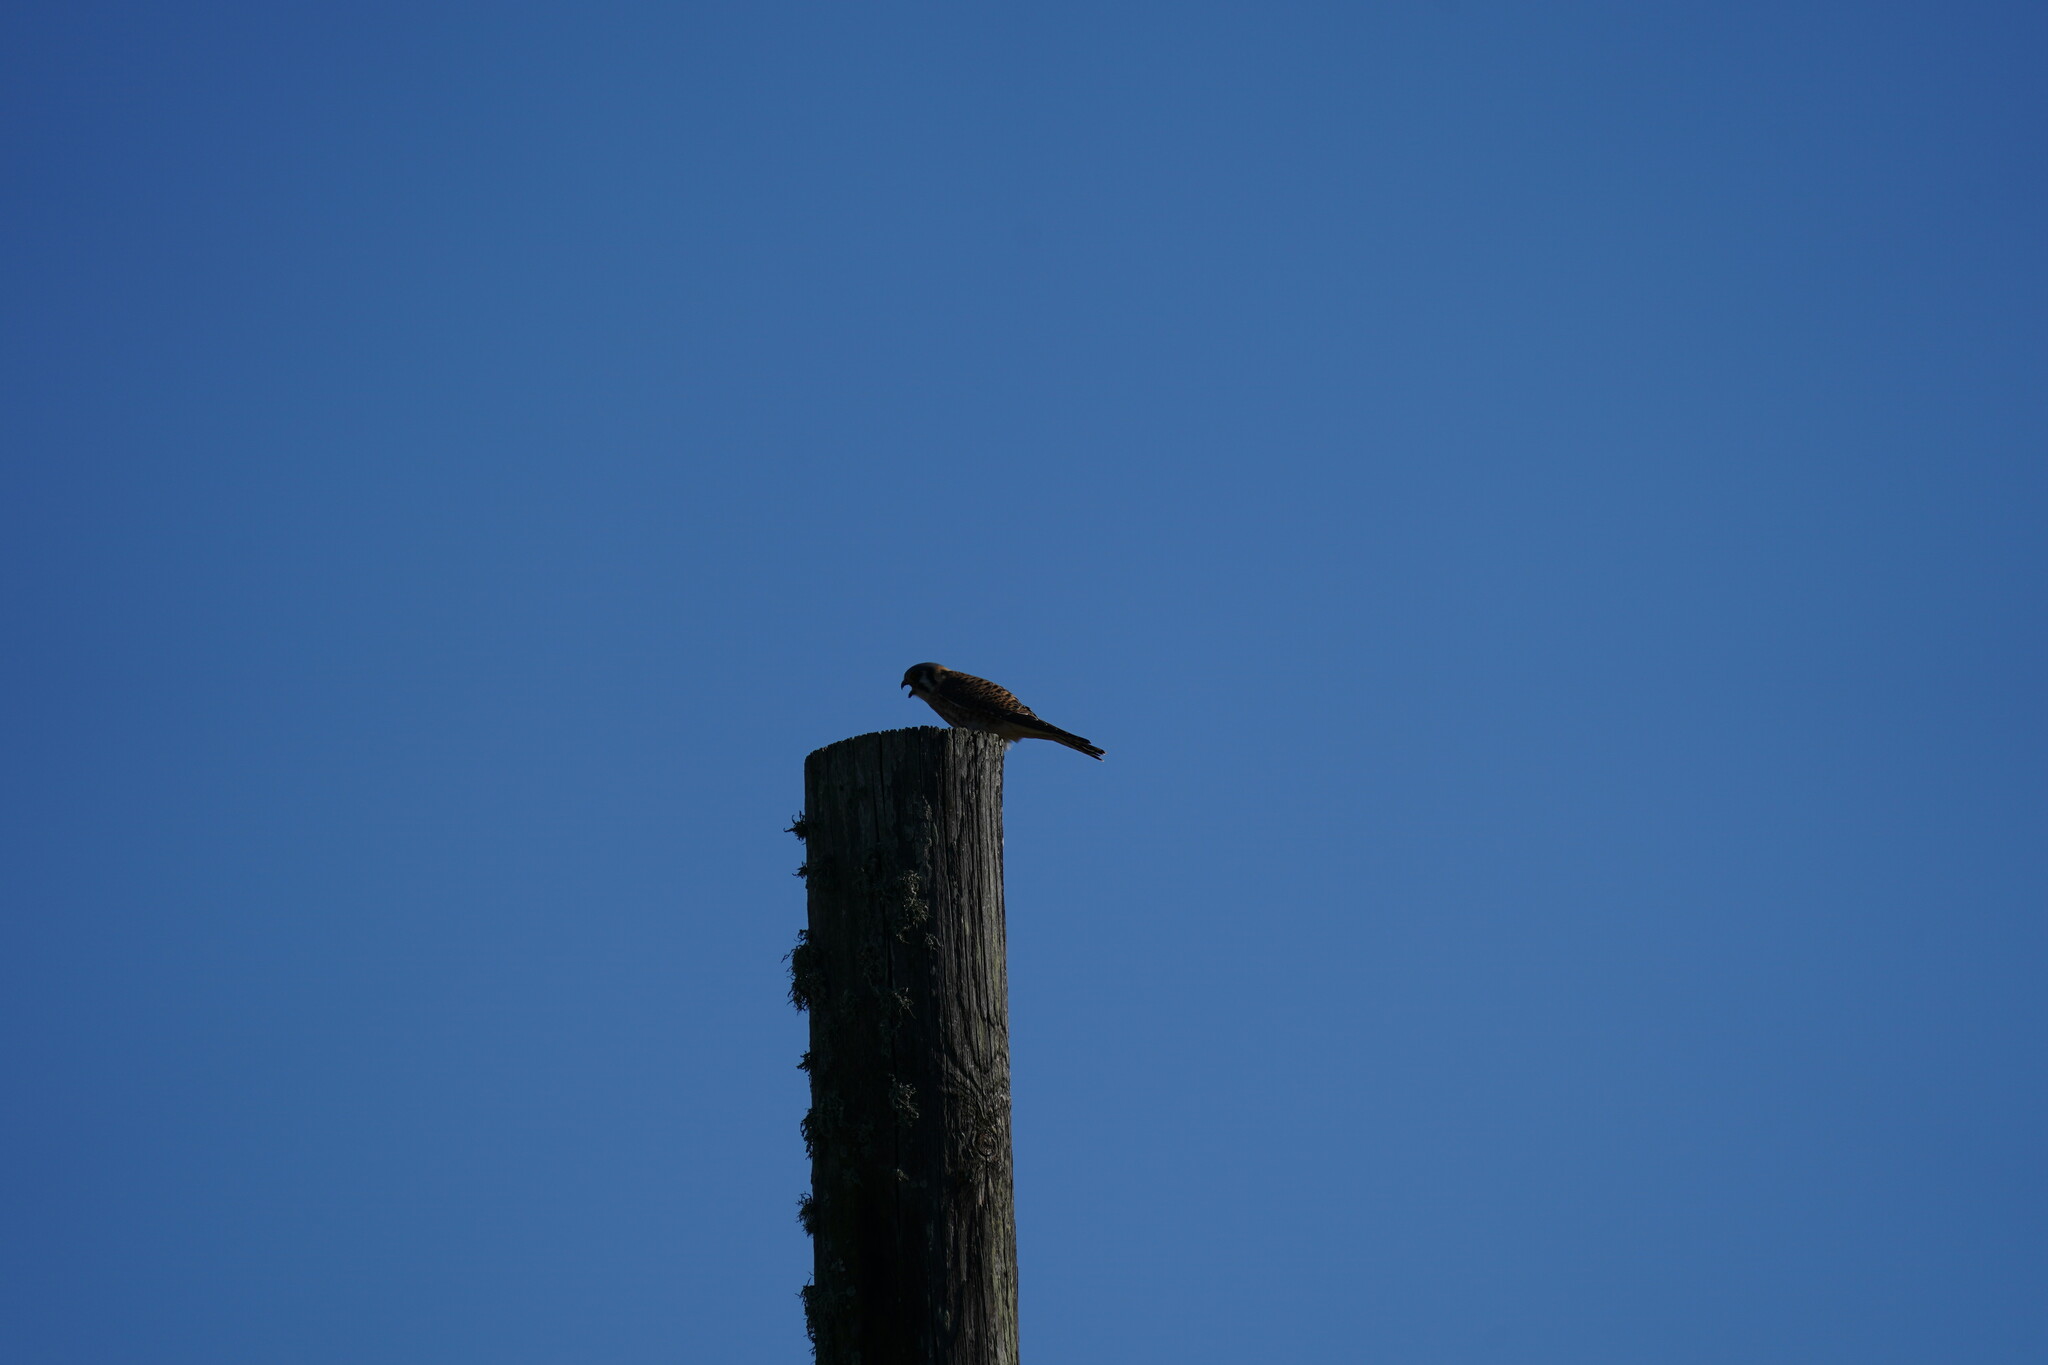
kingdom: Animalia
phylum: Chordata
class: Aves
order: Falconiformes
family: Falconidae
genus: Falco
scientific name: Falco sparverius
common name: American kestrel
